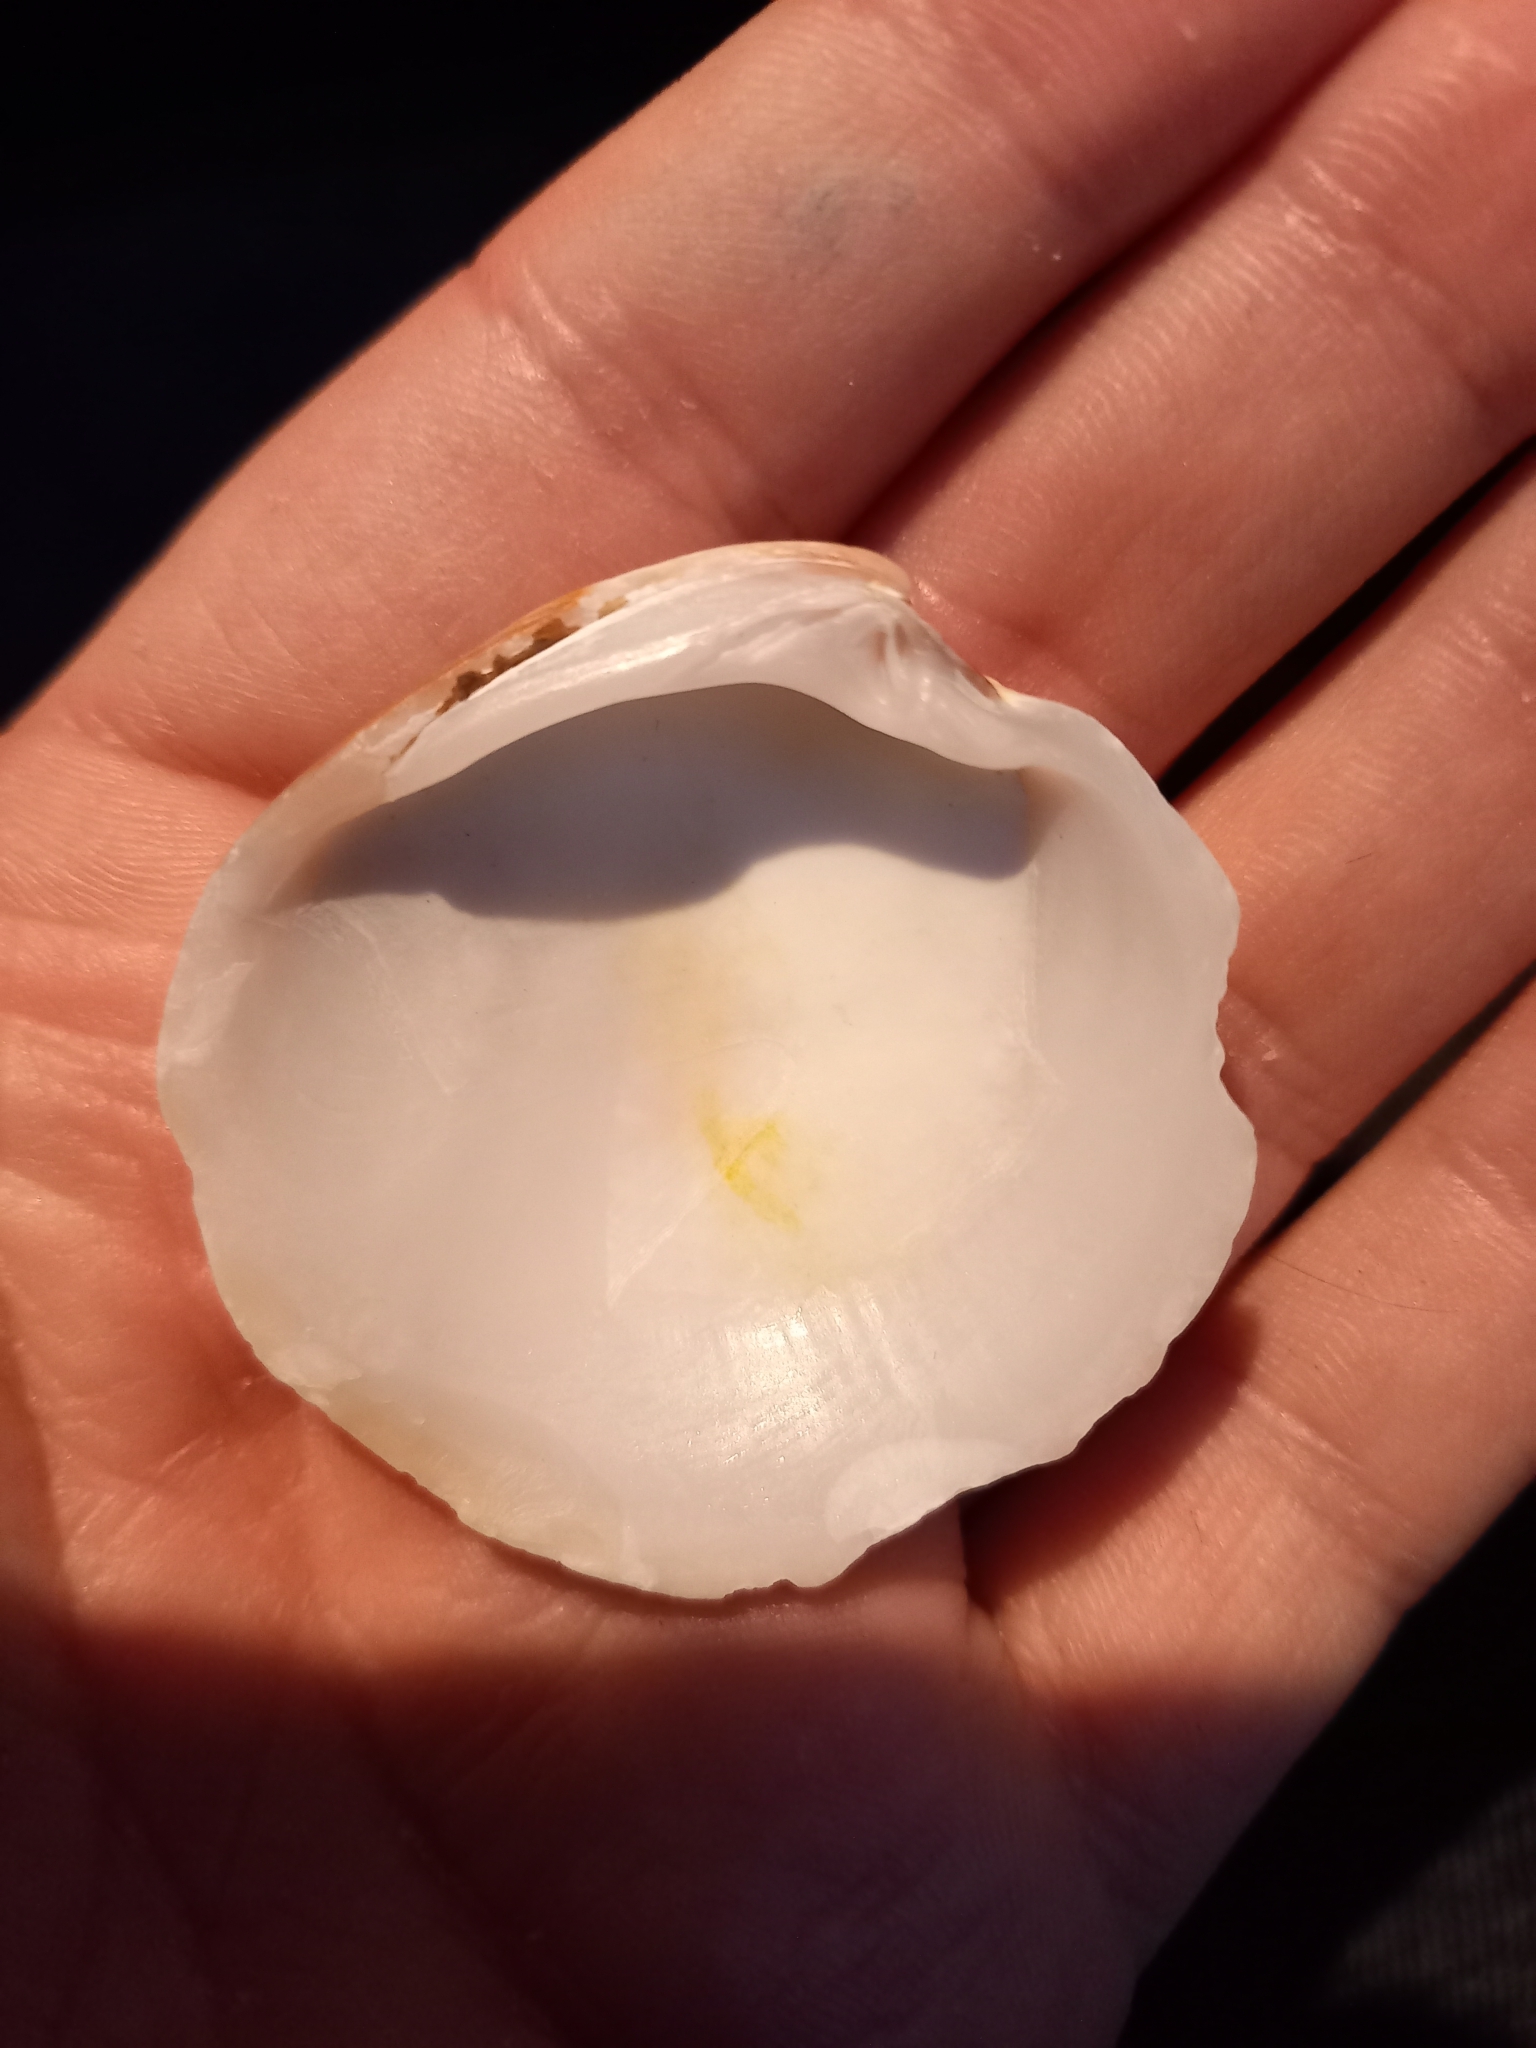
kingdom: Animalia
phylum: Mollusca
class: Bivalvia
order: Venerida
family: Veneridae
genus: Dosinia
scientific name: Dosinia subrosea
